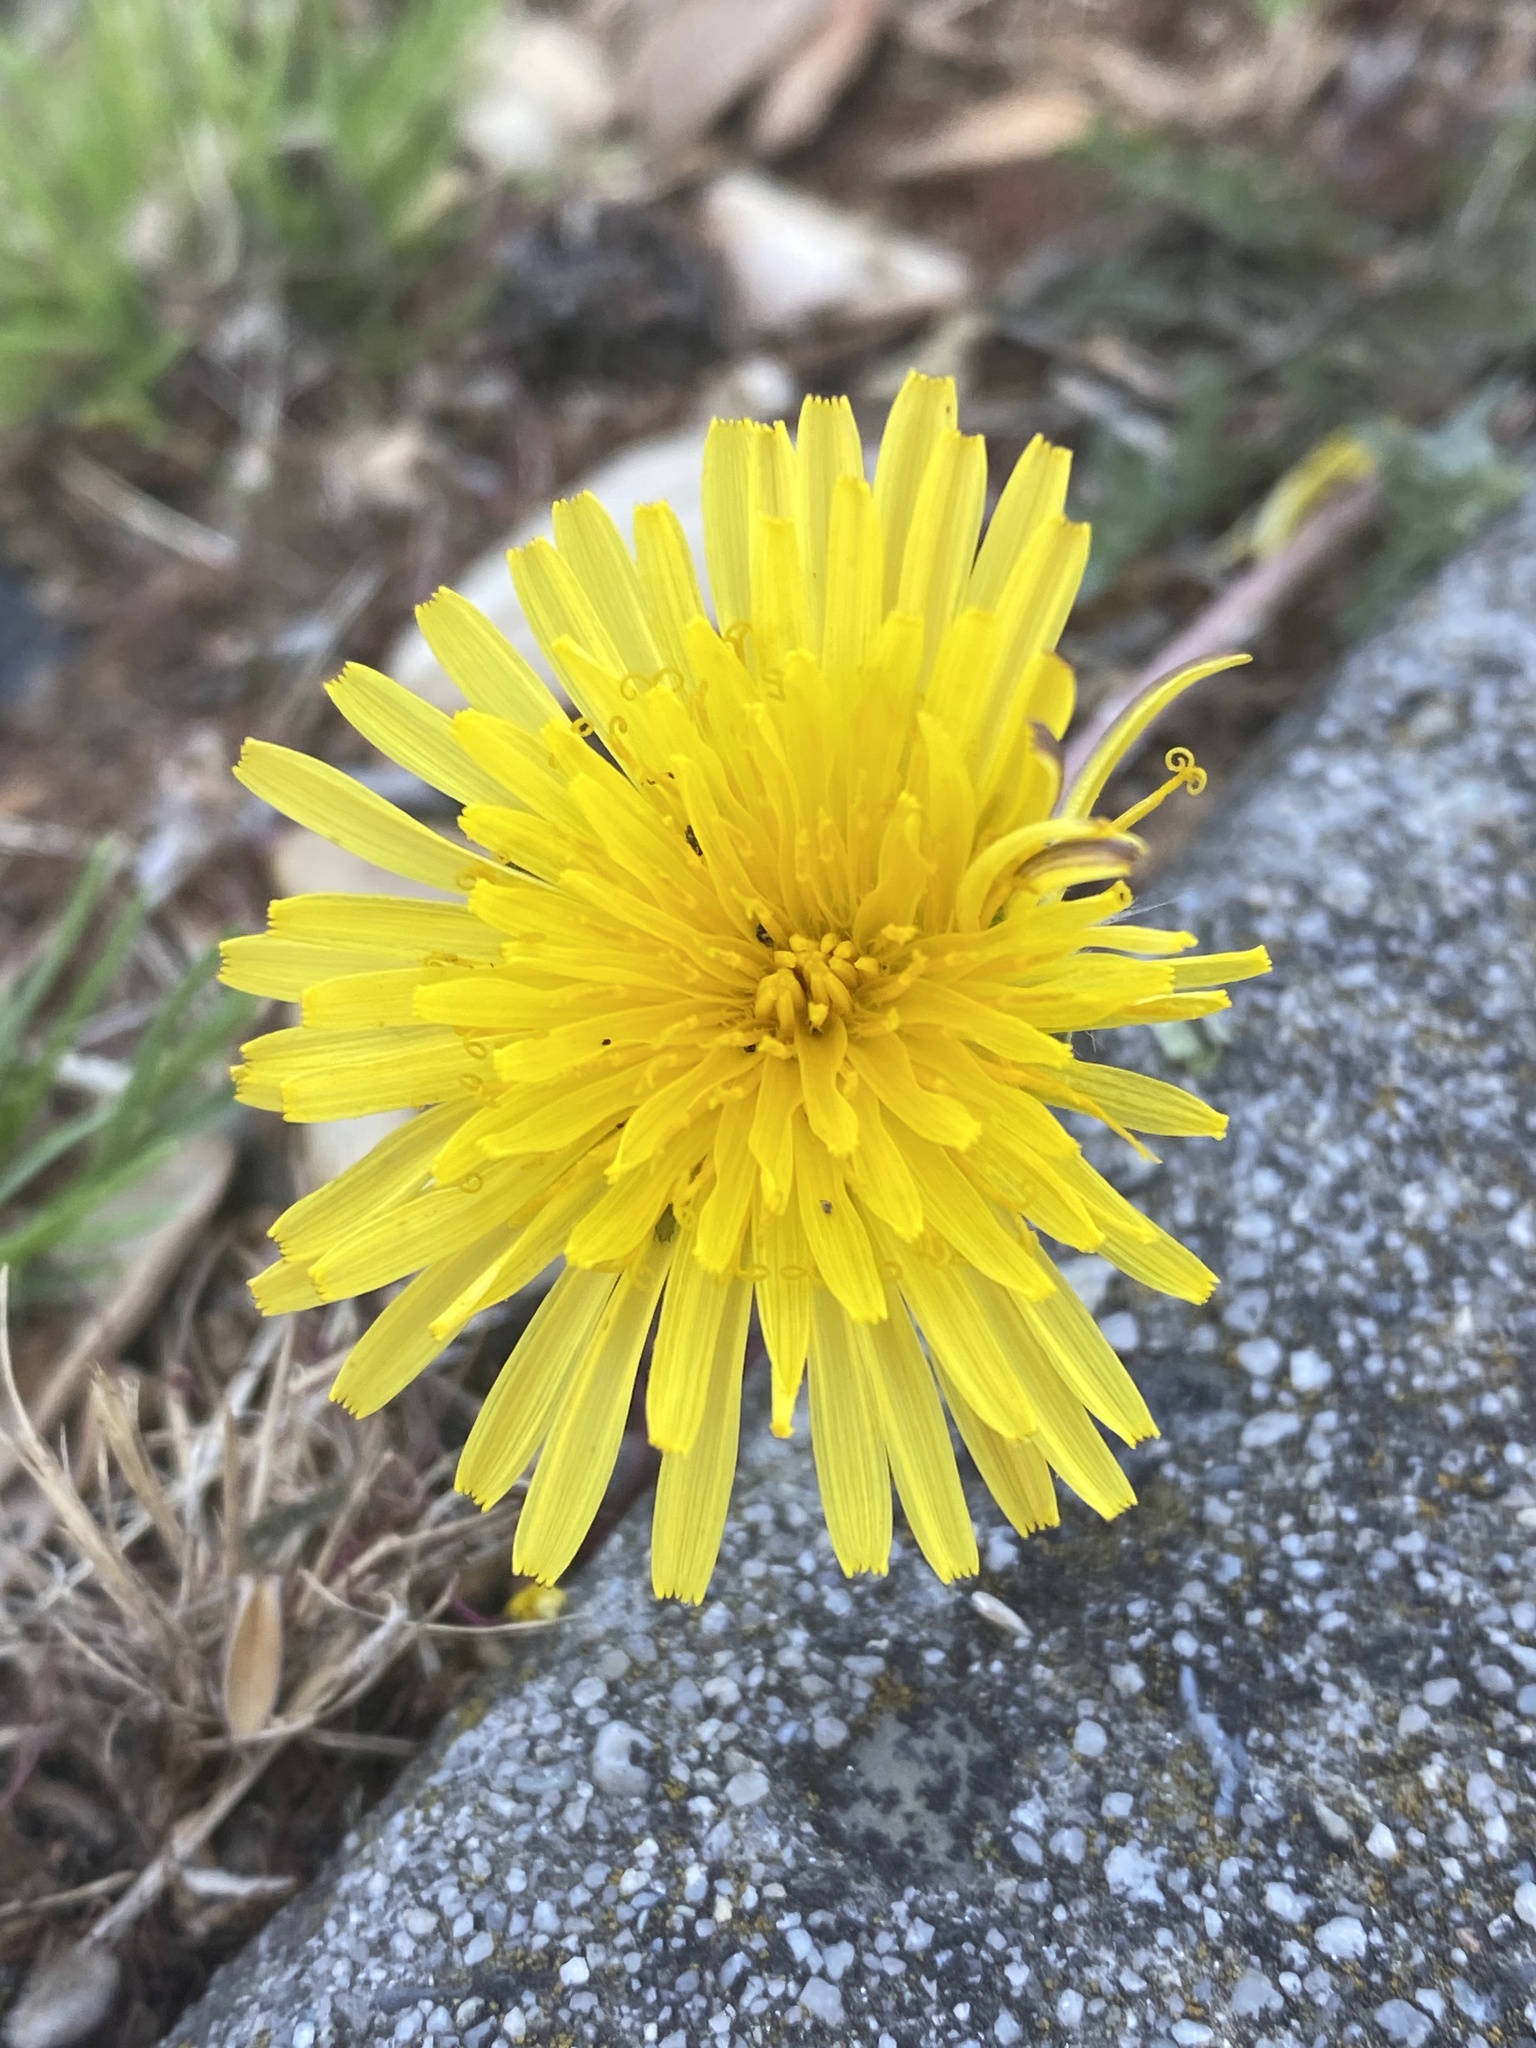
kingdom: Plantae
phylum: Tracheophyta
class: Magnoliopsida
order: Asterales
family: Asteraceae
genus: Taraxacum
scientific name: Taraxacum officinale
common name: Common dandelion
